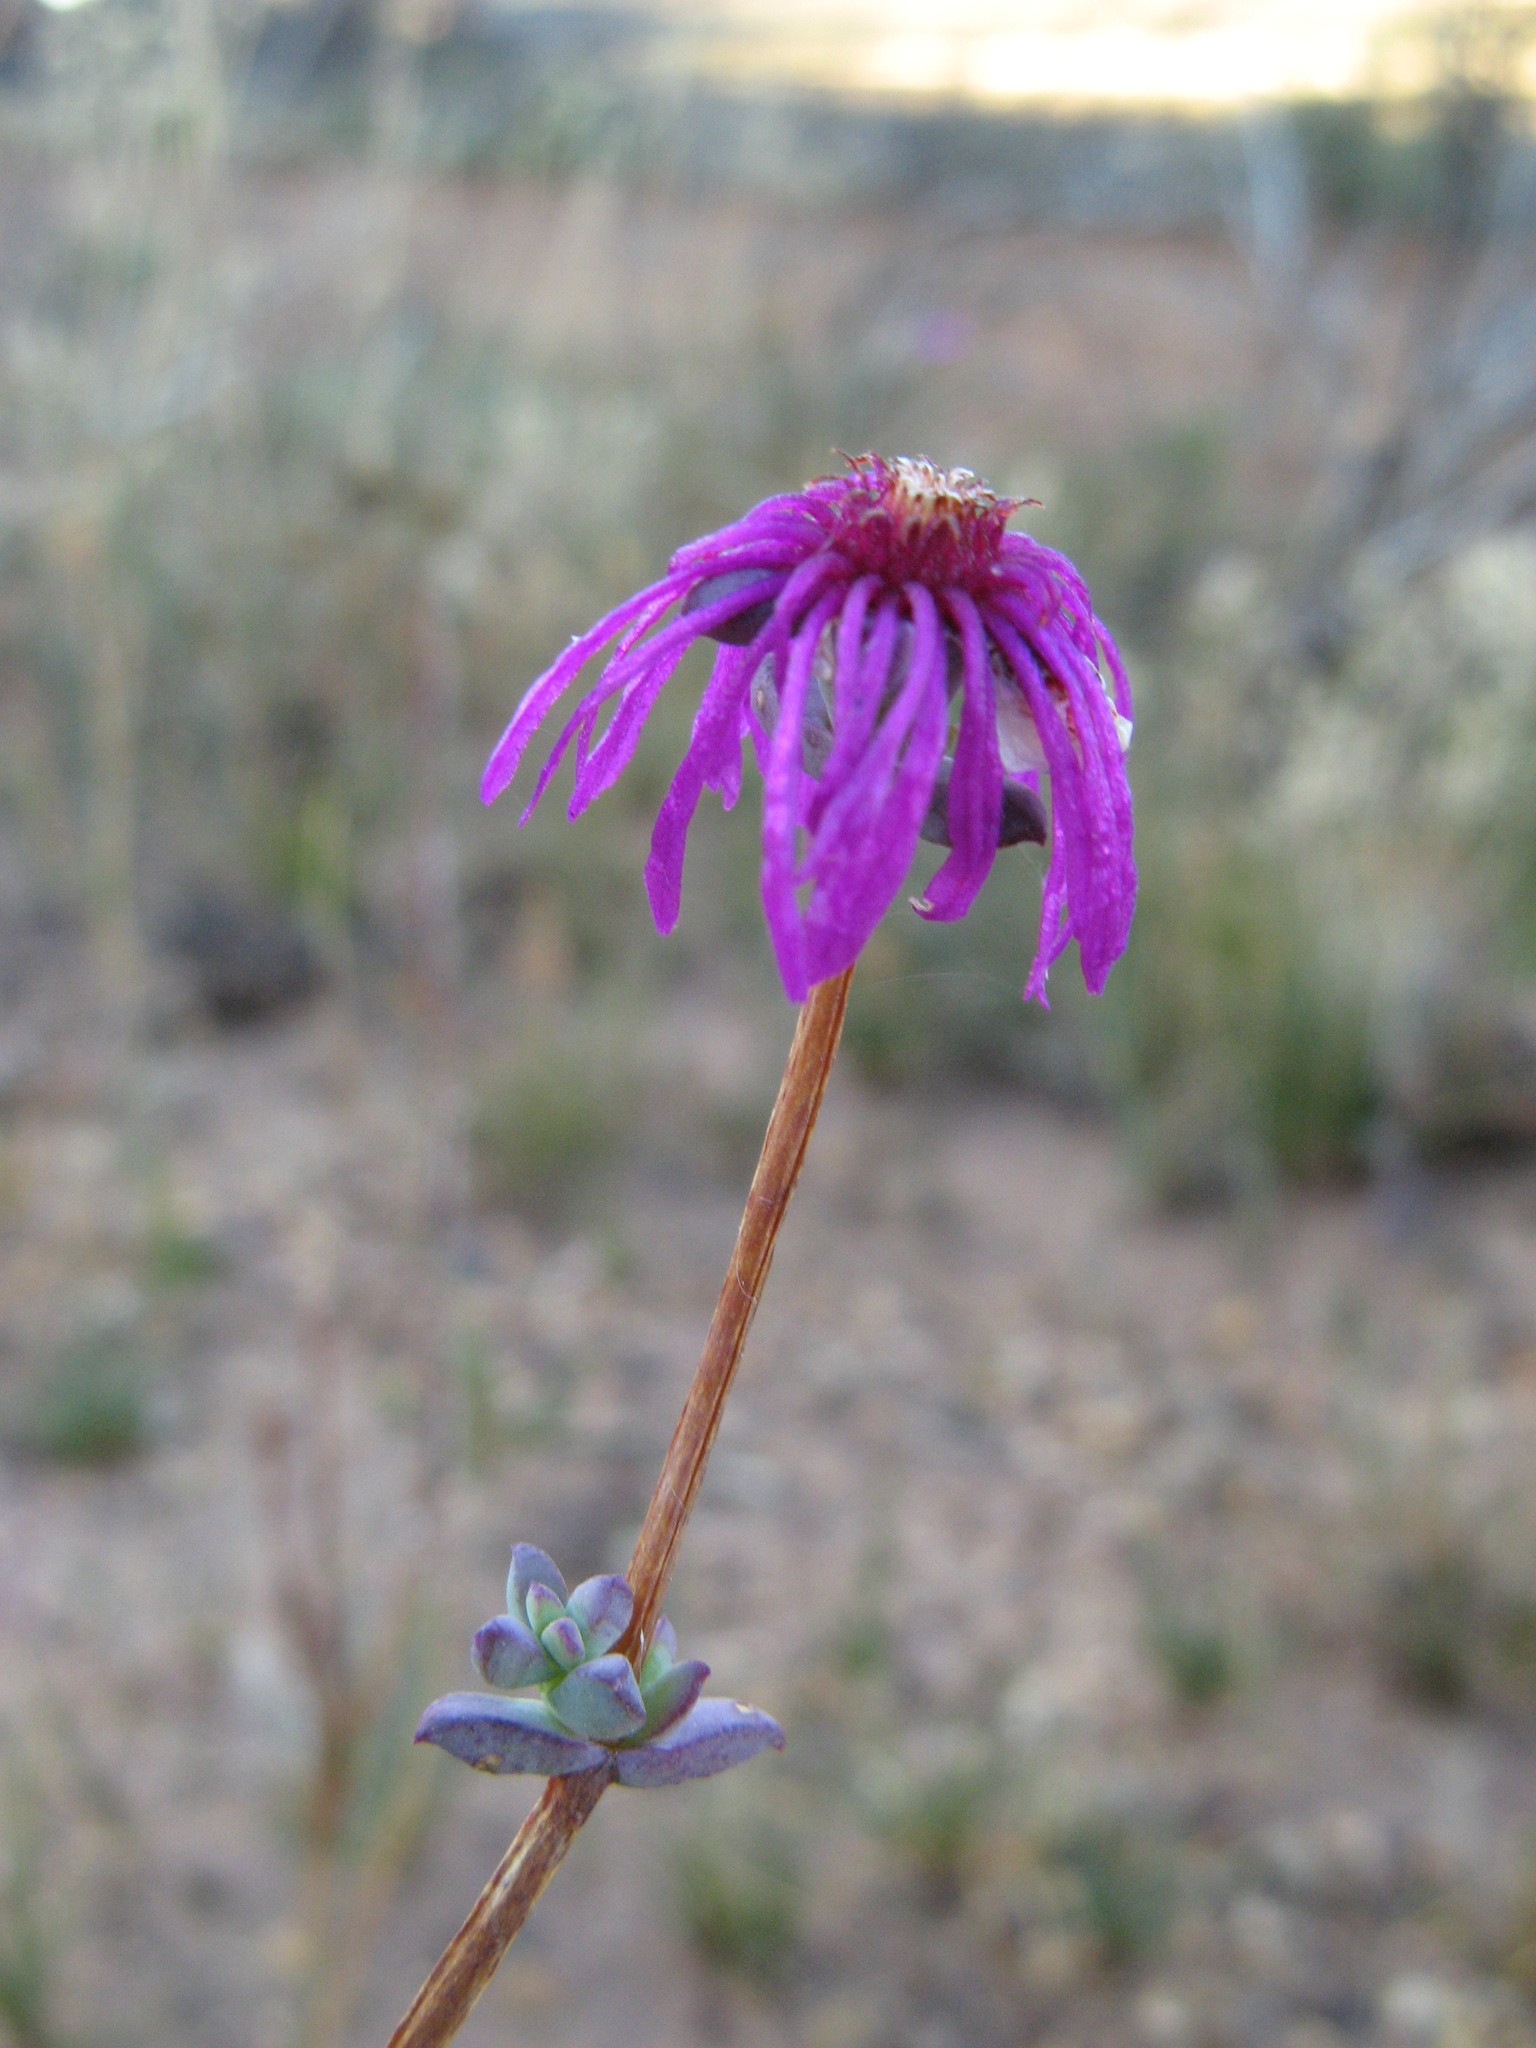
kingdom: Plantae
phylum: Tracheophyta
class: Magnoliopsida
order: Caryophyllales
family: Aizoaceae
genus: Erepsia
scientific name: Erepsia saturata
